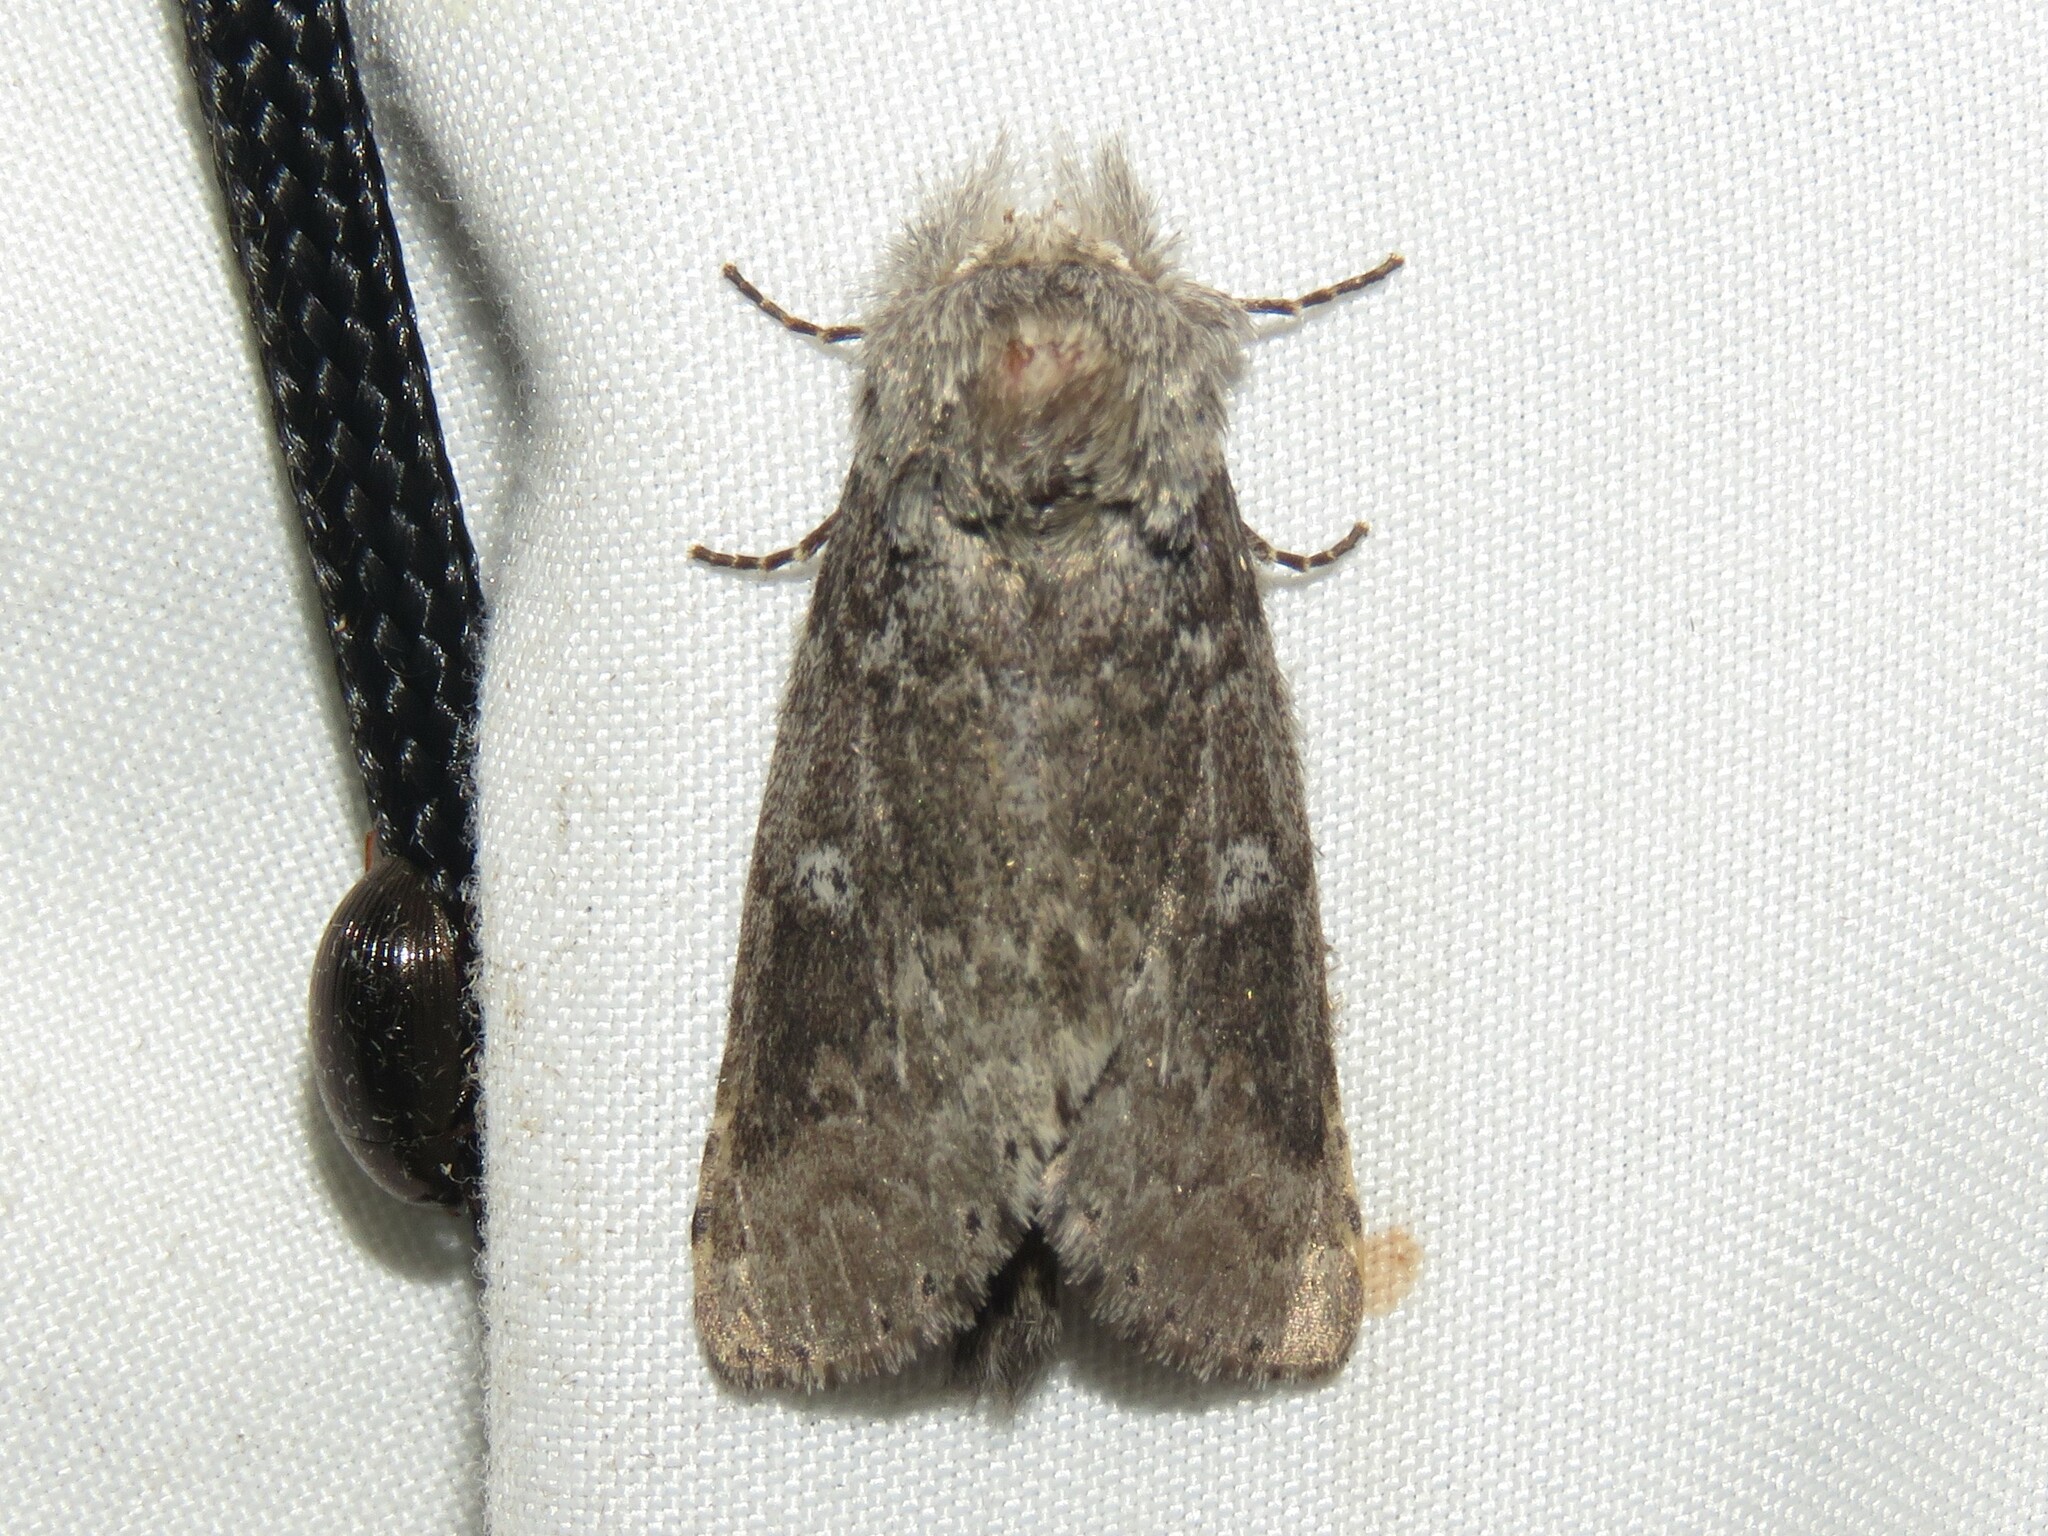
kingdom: Animalia
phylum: Arthropoda
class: Insecta
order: Lepidoptera
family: Notodontidae
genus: Lochmaeus
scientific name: Lochmaeus manteo
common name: Variable oakleaf caterpillar moth
